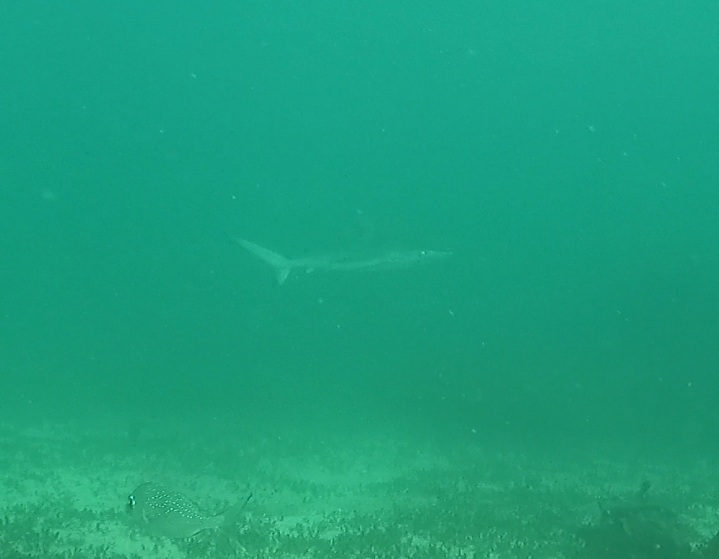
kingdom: Animalia
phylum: Chordata
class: Elasmobranchii
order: Carcharhiniformes
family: Carcharhinidae
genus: Carcharhinus
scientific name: Carcharhinus obscurus
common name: Dusky shark
